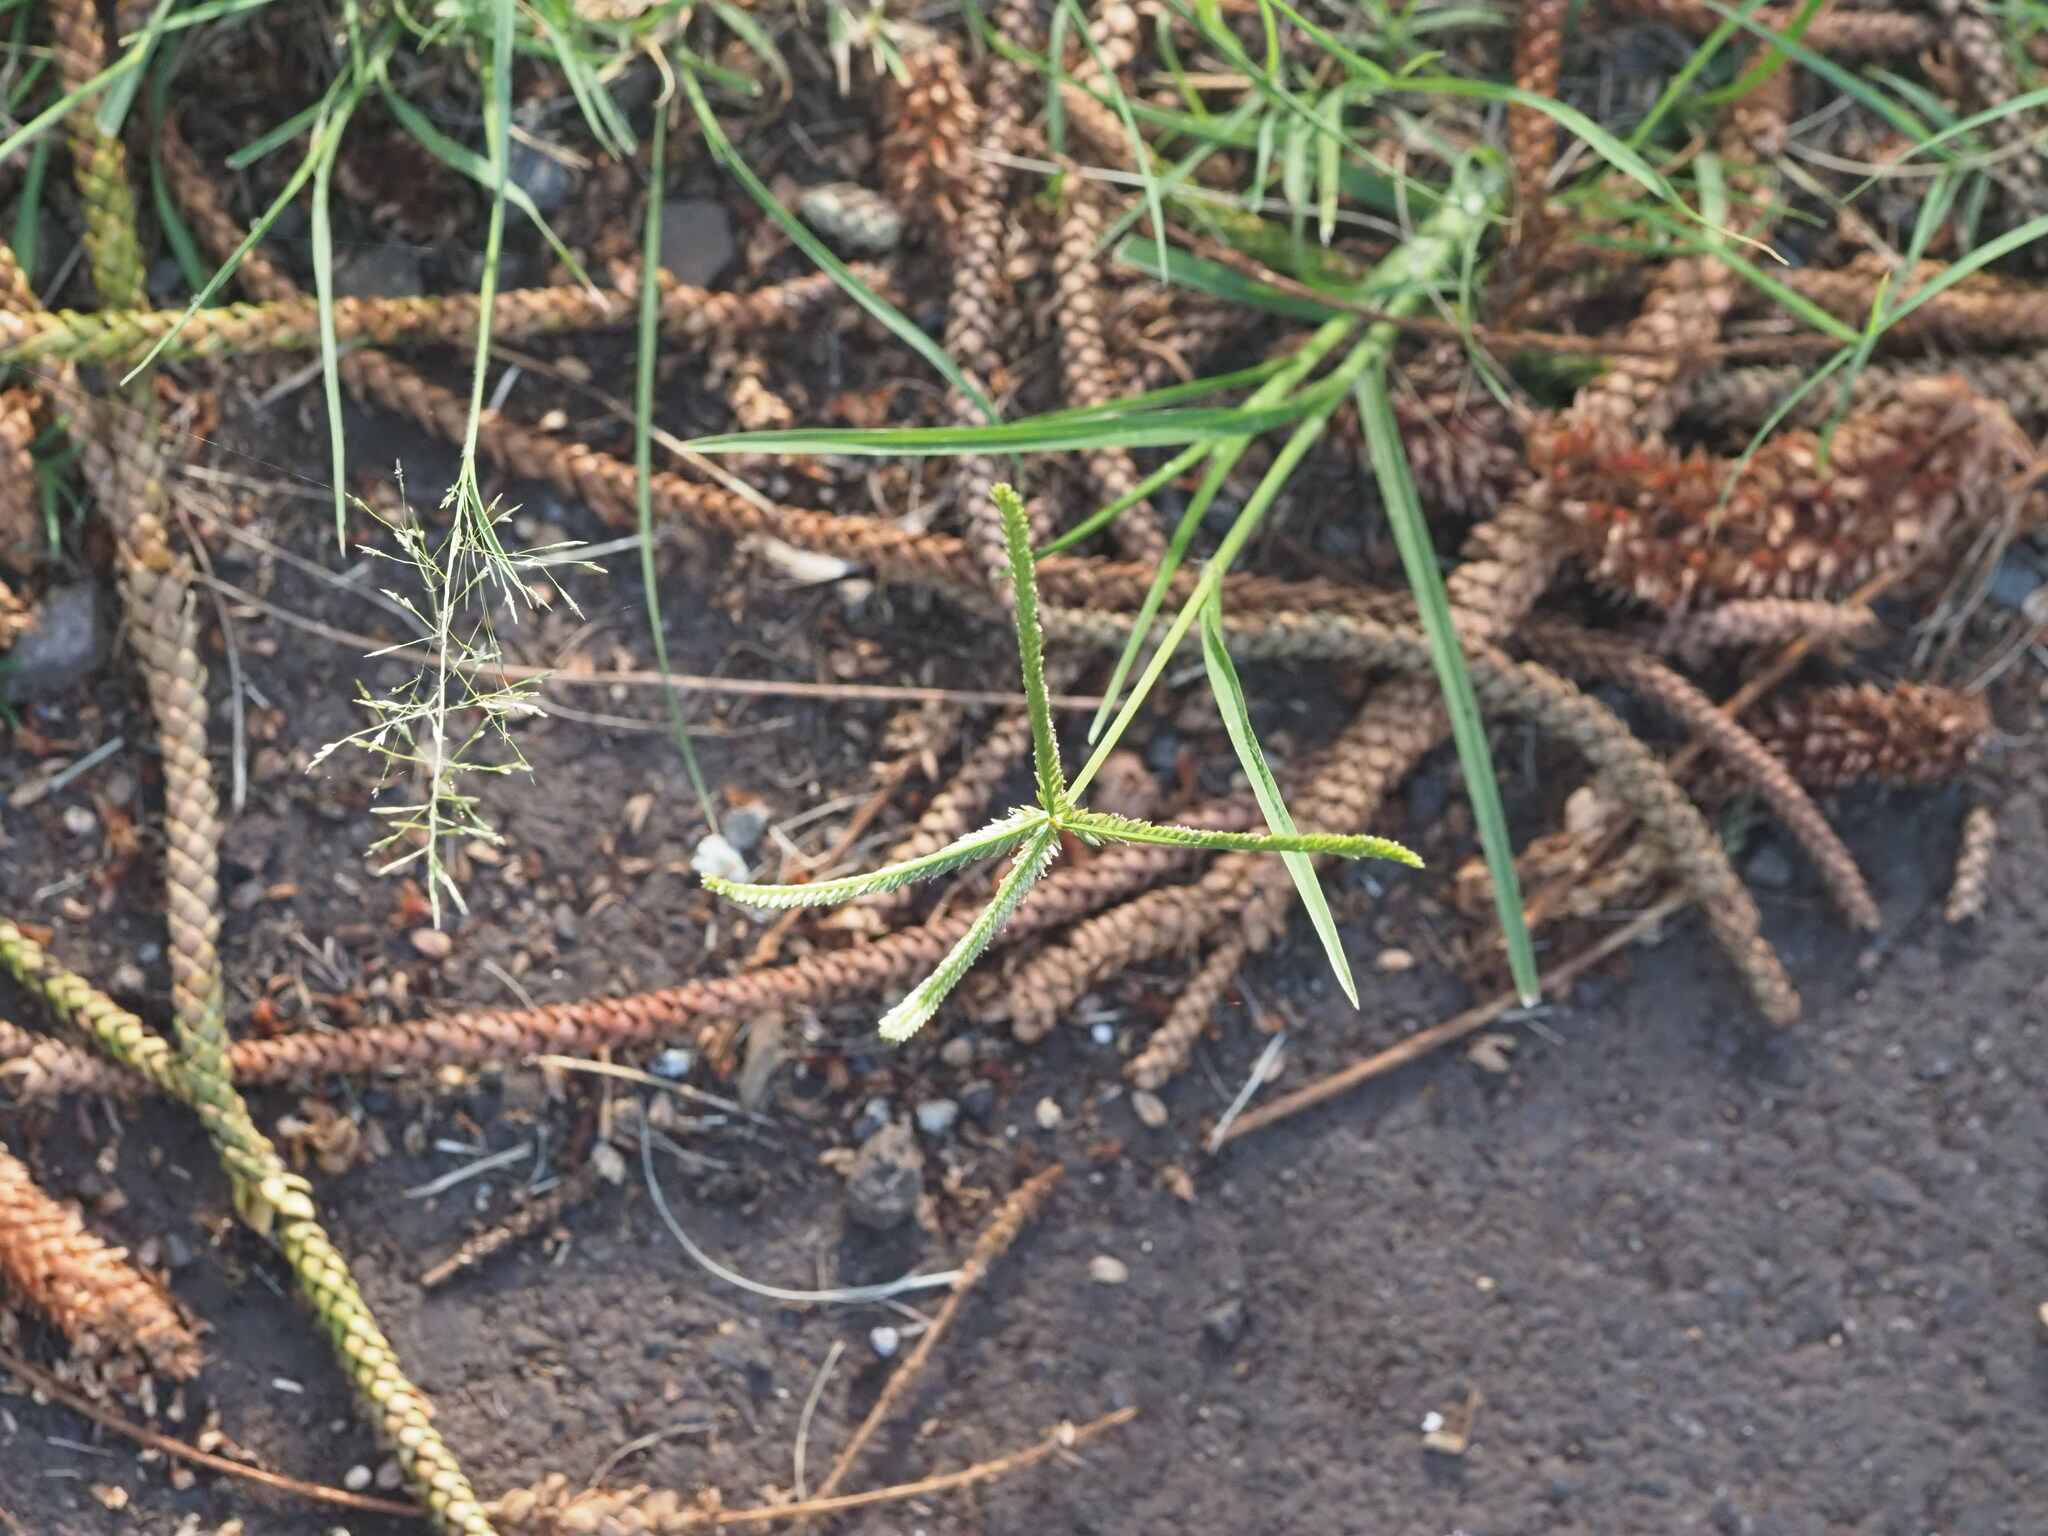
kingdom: Plantae
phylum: Tracheophyta
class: Liliopsida
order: Poales
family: Poaceae
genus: Eleusine
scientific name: Eleusine indica
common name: Yard-grass
